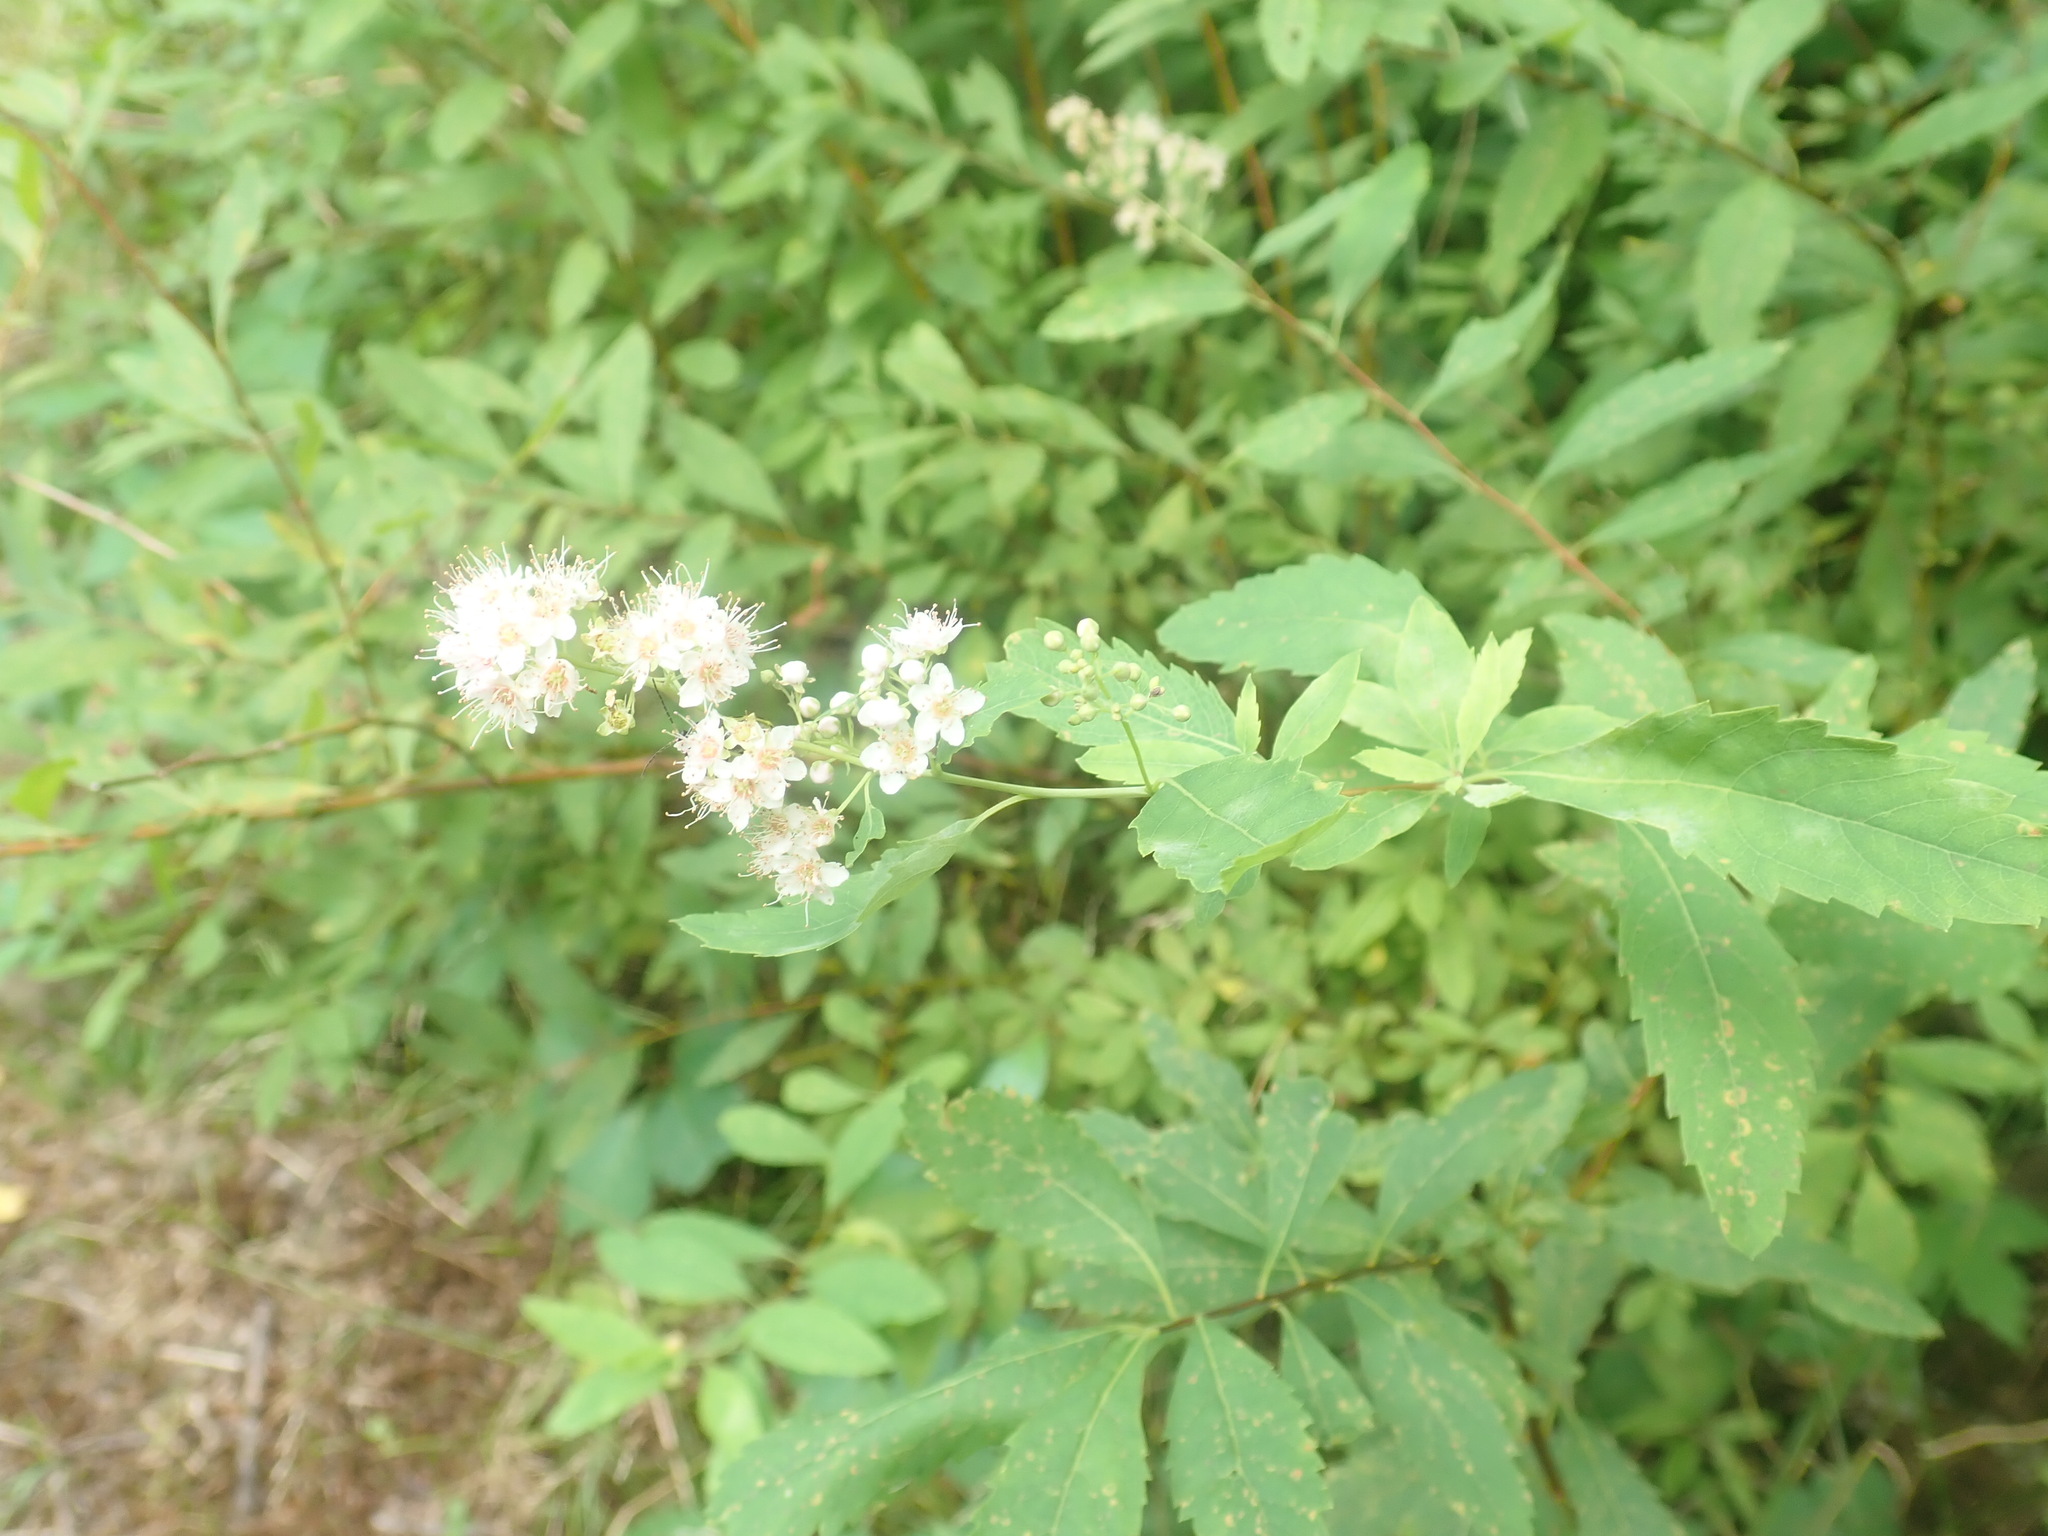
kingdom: Plantae
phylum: Tracheophyta
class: Magnoliopsida
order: Rosales
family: Rosaceae
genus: Spiraea
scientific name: Spiraea alba
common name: Pale bridewort
